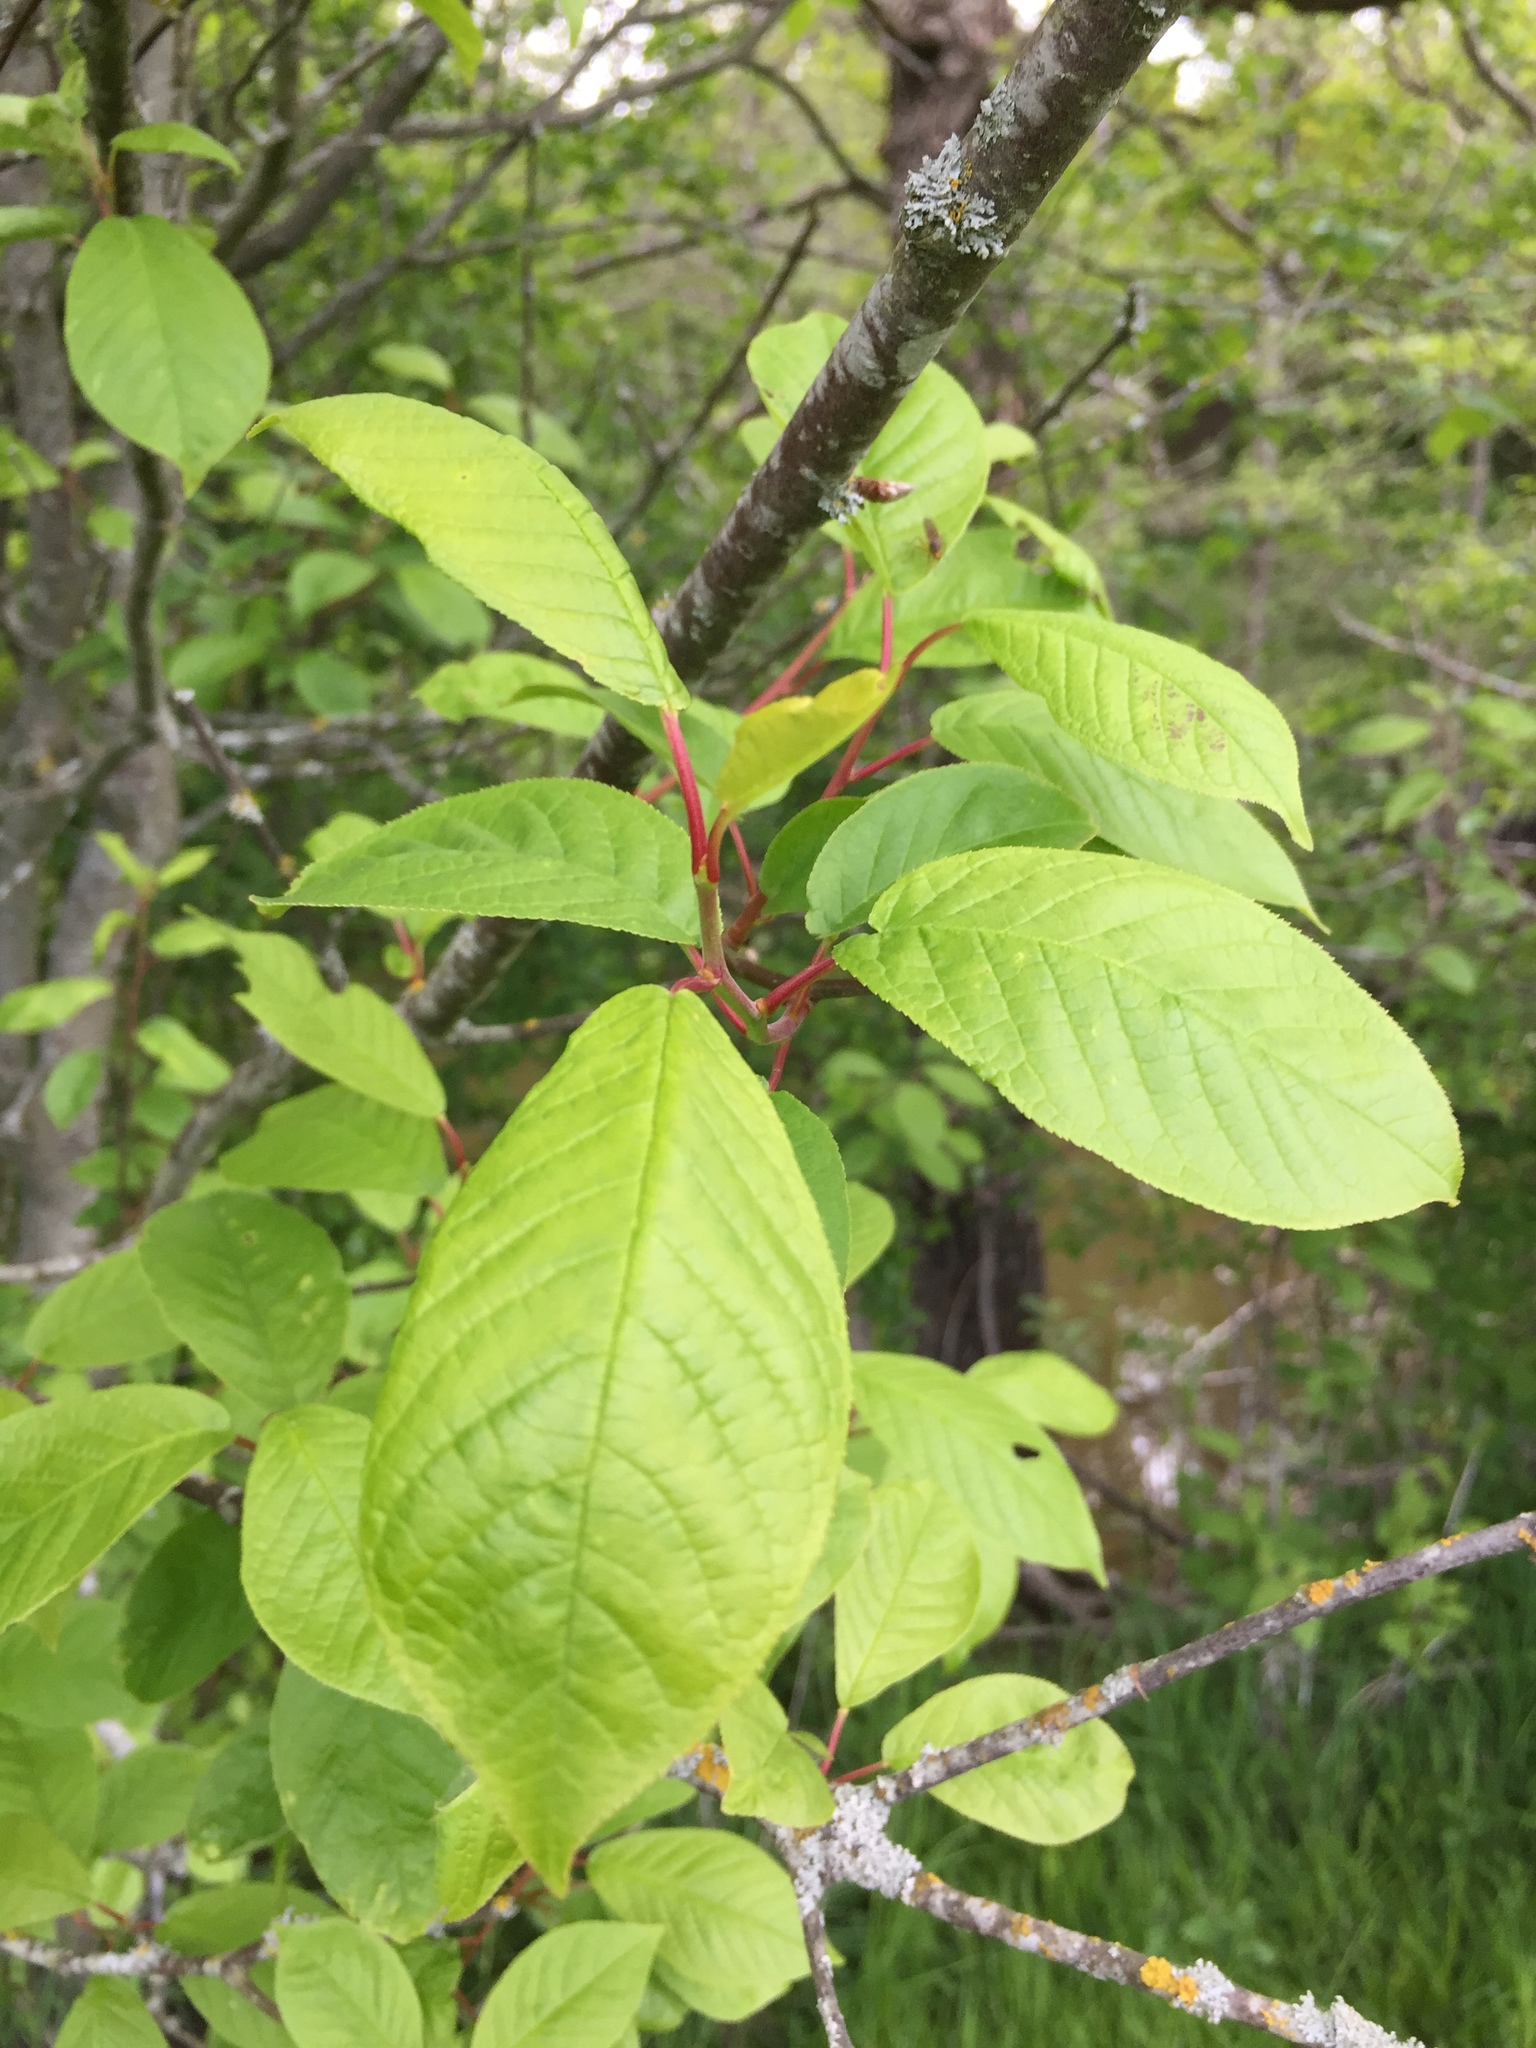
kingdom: Plantae
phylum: Tracheophyta
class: Magnoliopsida
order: Rosales
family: Rosaceae
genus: Prunus
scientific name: Prunus padus
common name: Bird cherry
